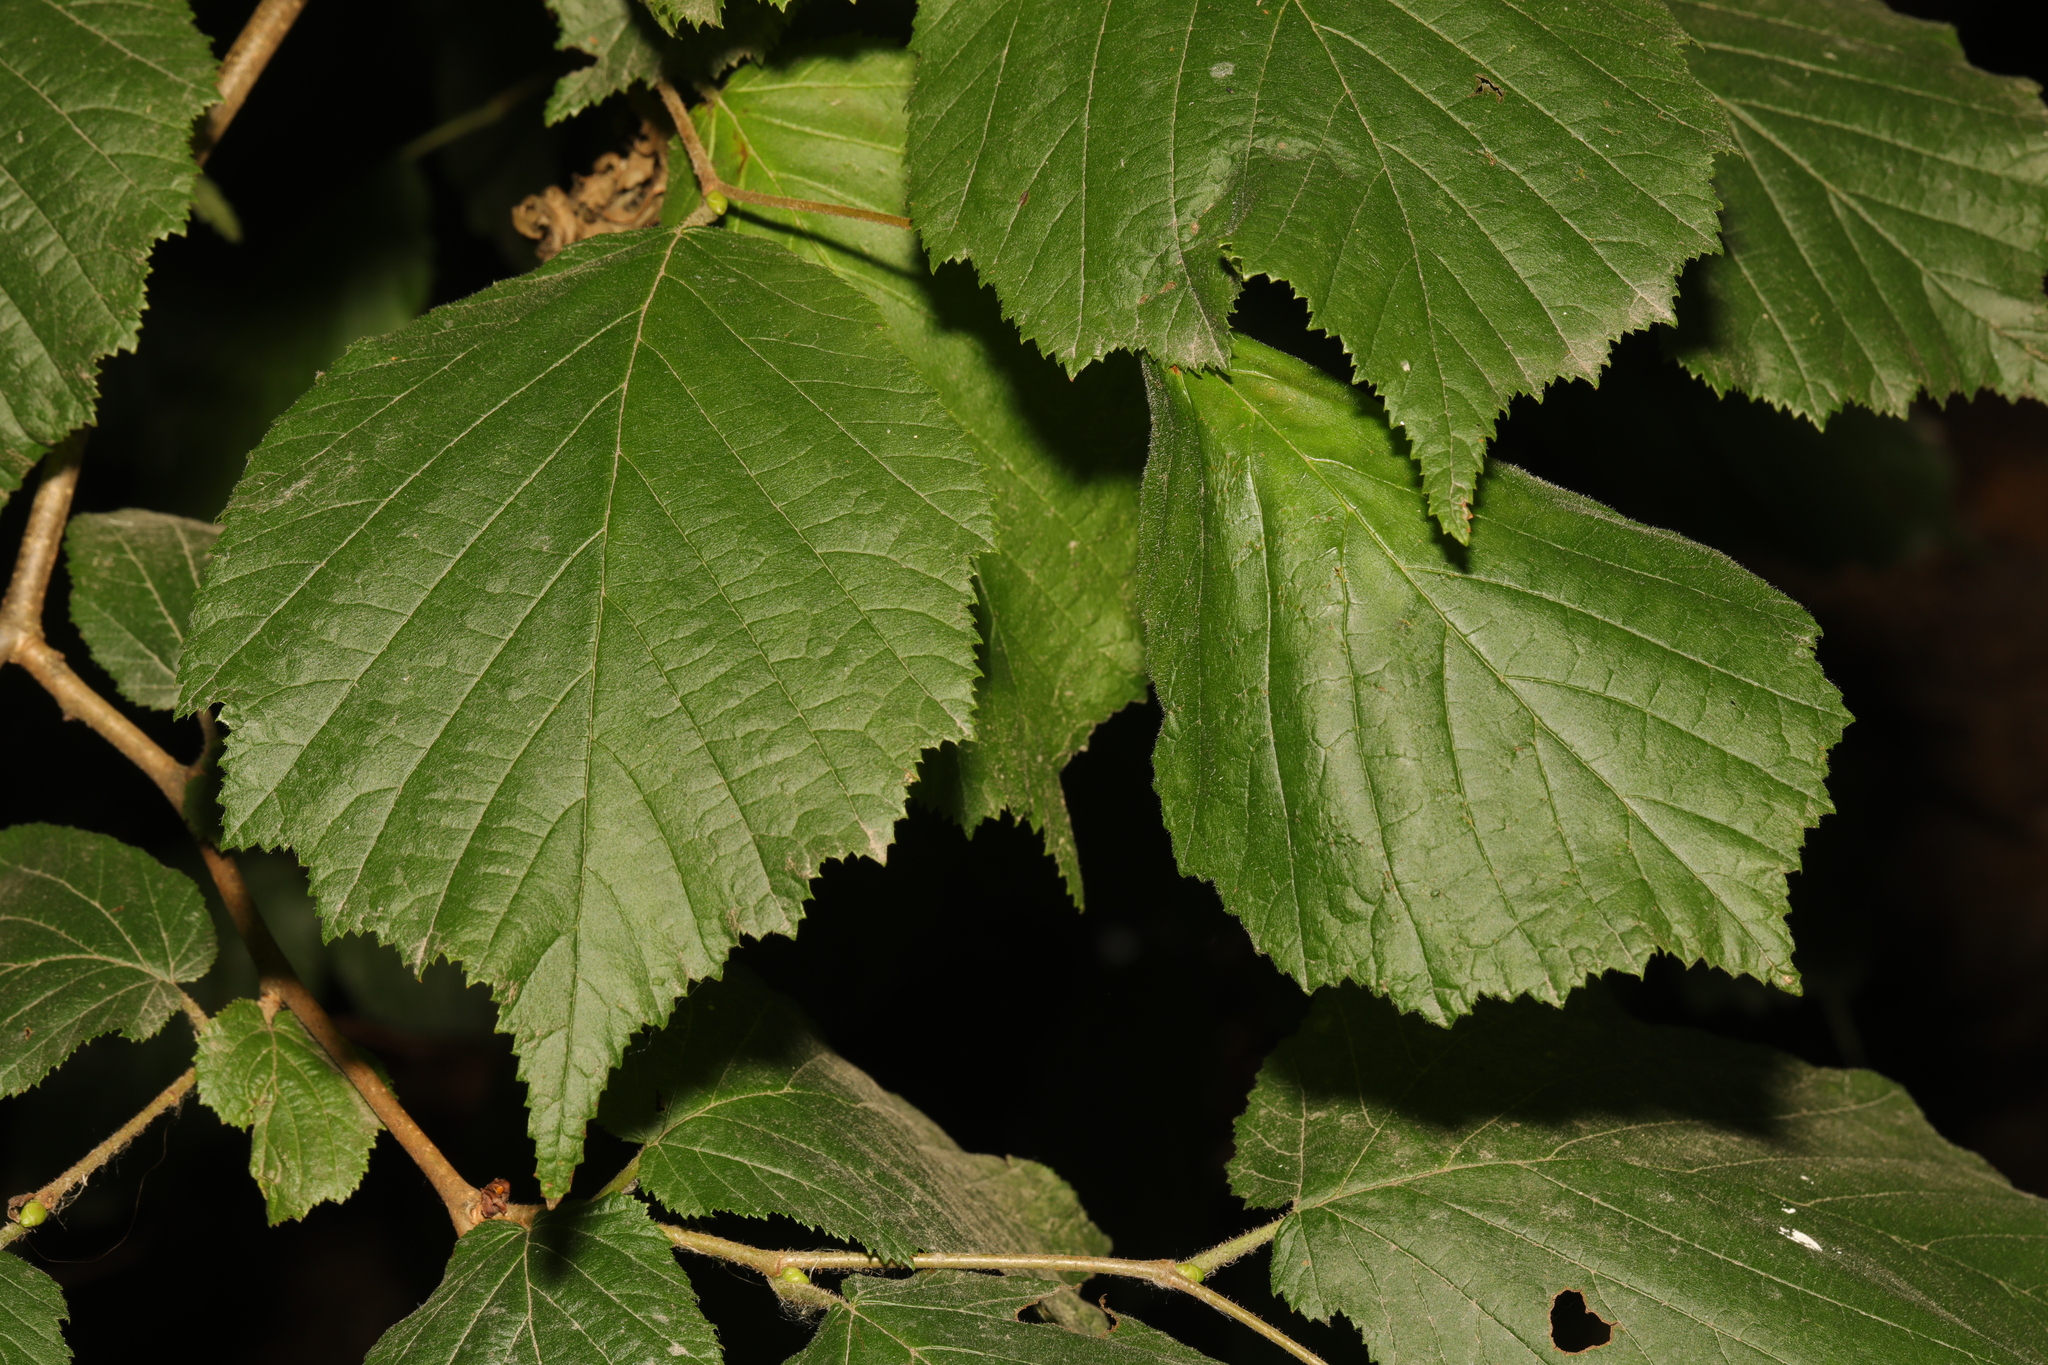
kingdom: Plantae
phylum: Tracheophyta
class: Magnoliopsida
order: Fagales
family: Betulaceae
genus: Corylus
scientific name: Corylus avellana
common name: European hazel
